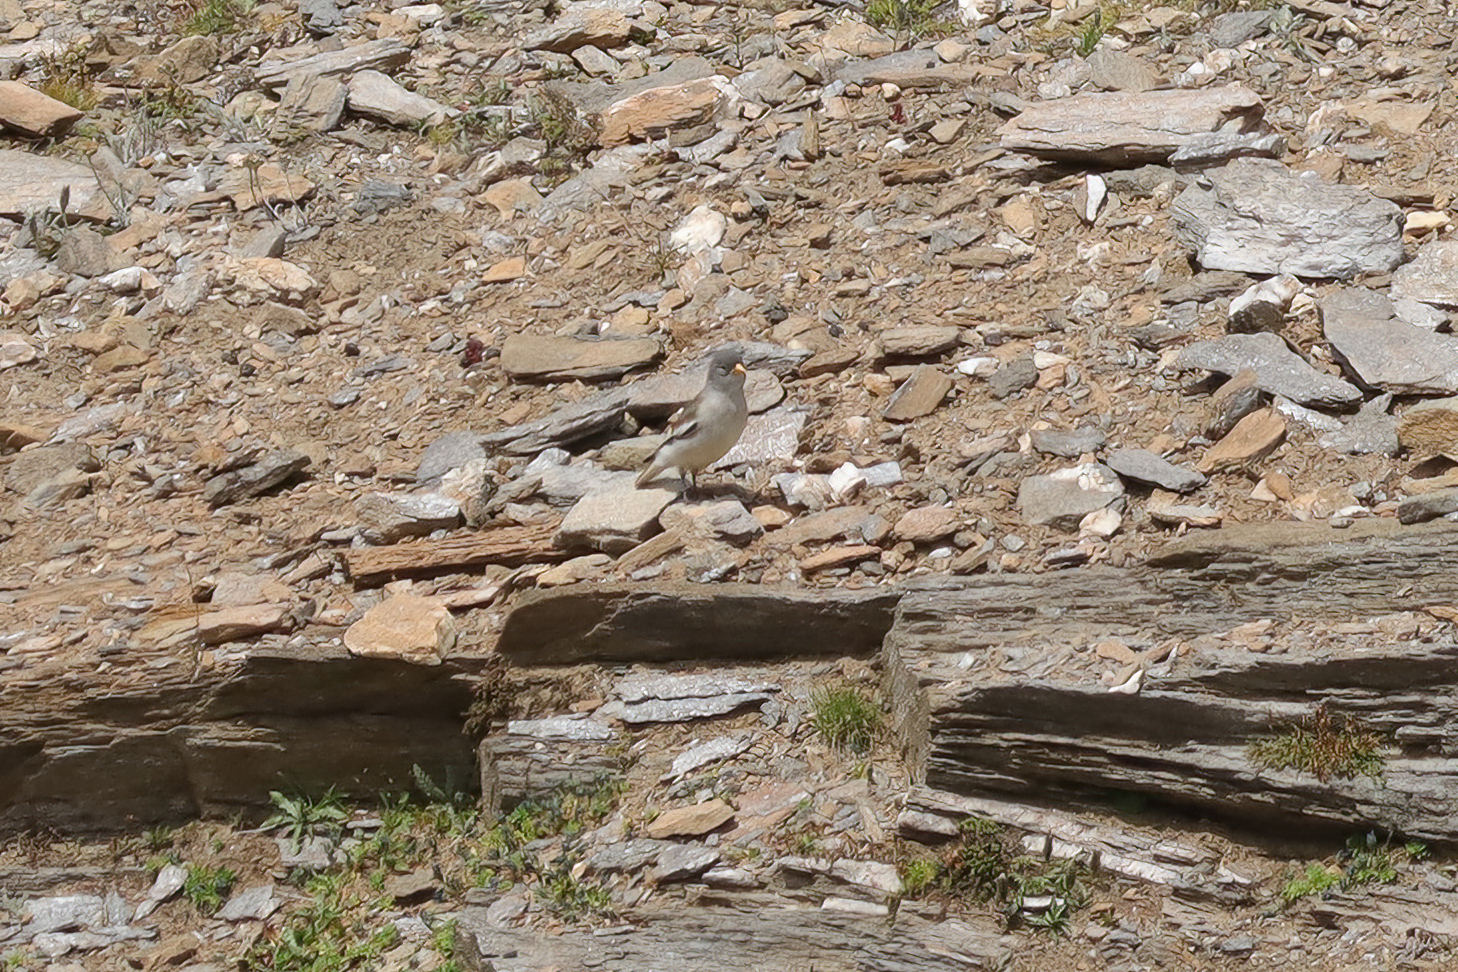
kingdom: Animalia
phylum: Chordata
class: Aves
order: Passeriformes
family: Passeridae
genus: Montifringilla
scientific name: Montifringilla nivalis
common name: White-winged snowfinch
